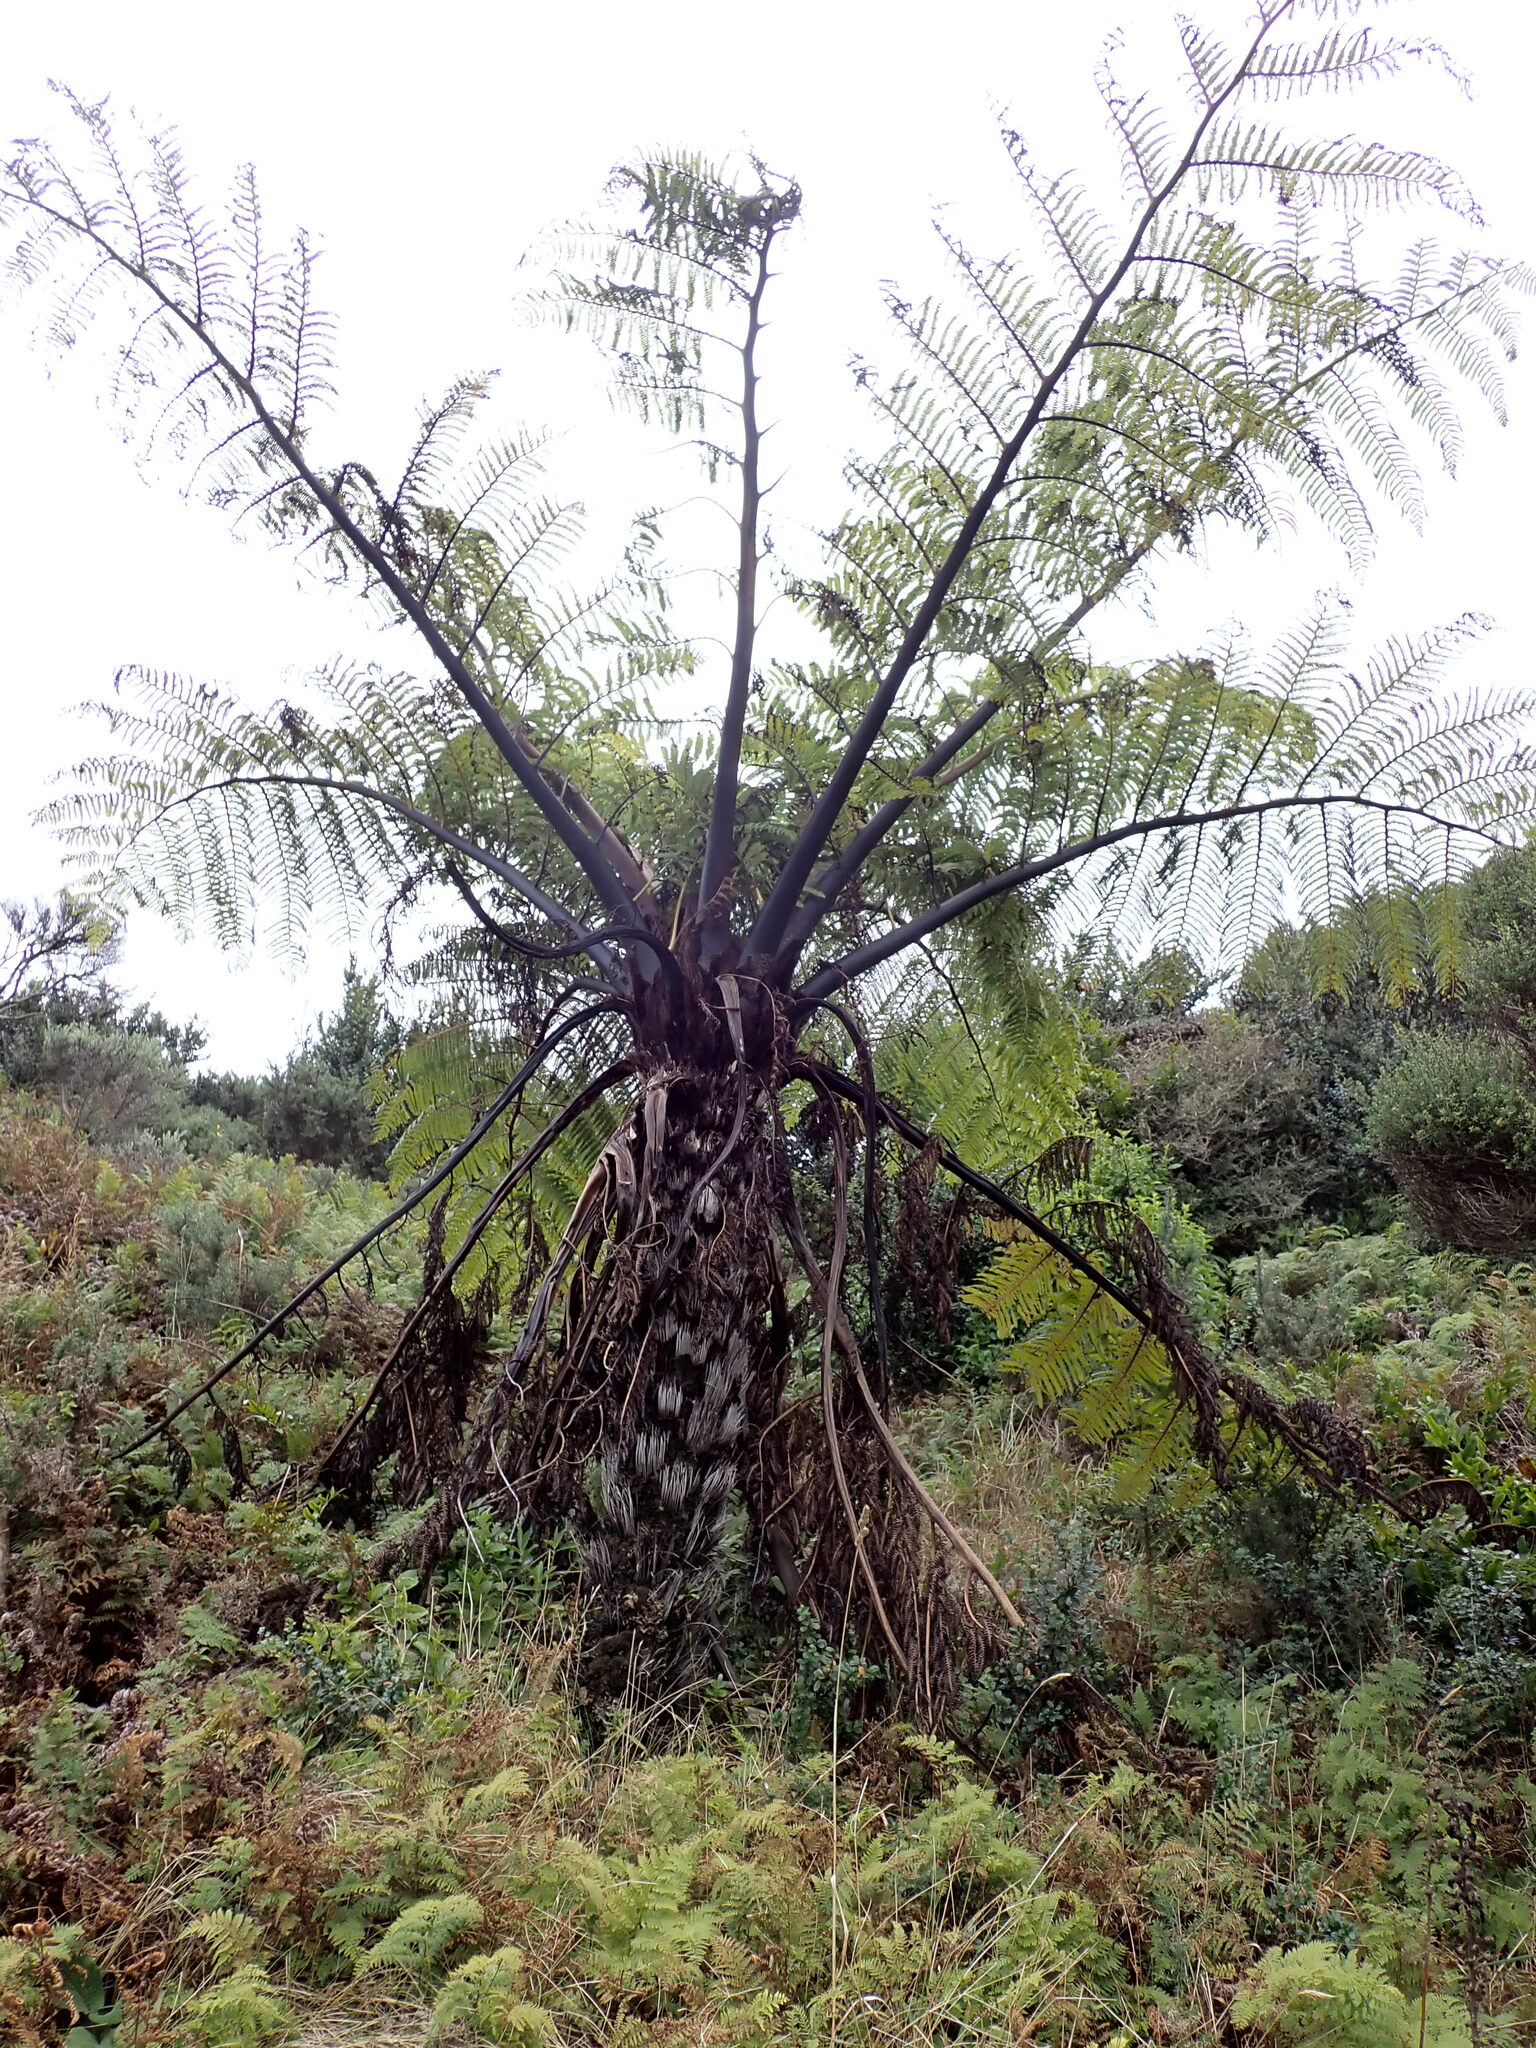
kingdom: Plantae
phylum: Tracheophyta
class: Polypodiopsida
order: Cyatheales
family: Cyatheaceae
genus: Sphaeropteris
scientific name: Sphaeropteris medullaris
